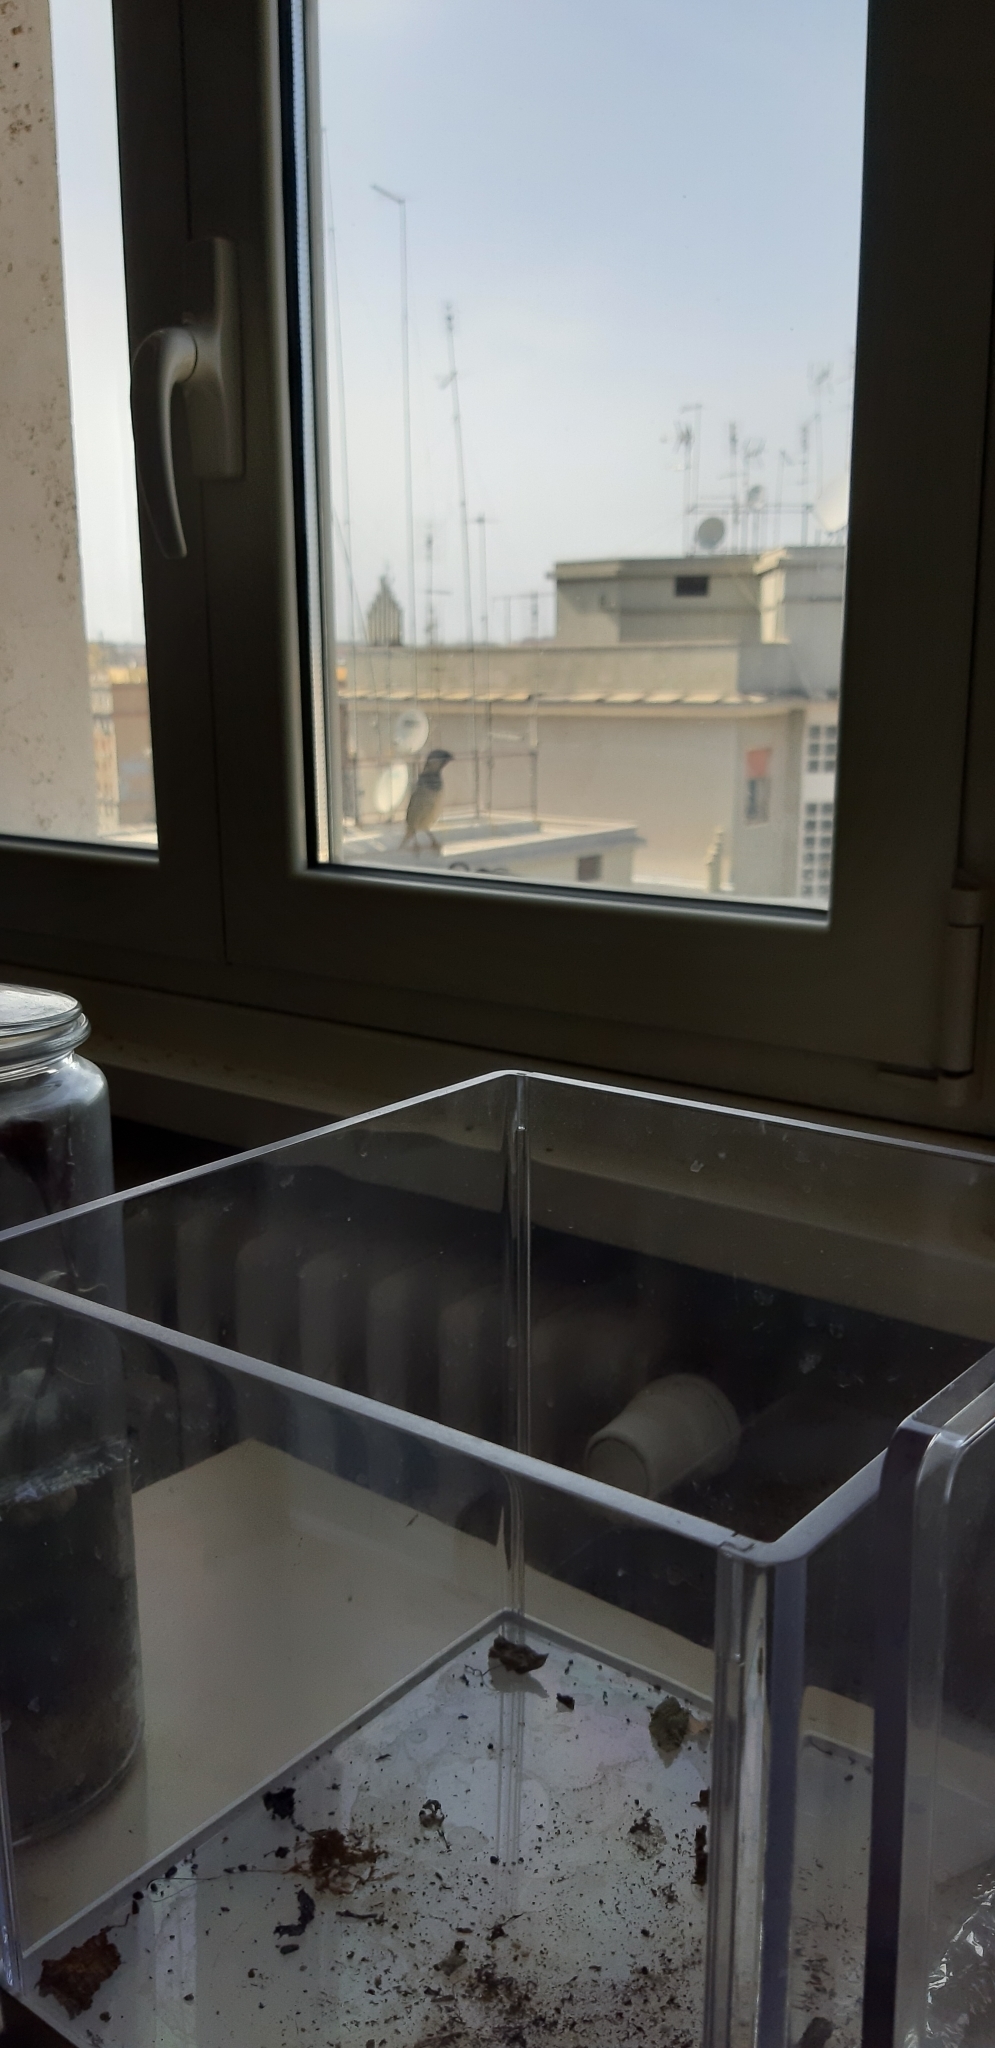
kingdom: Animalia
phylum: Chordata
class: Aves
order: Passeriformes
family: Passeridae
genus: Passer
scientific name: Passer italiae
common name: Italian sparrow
